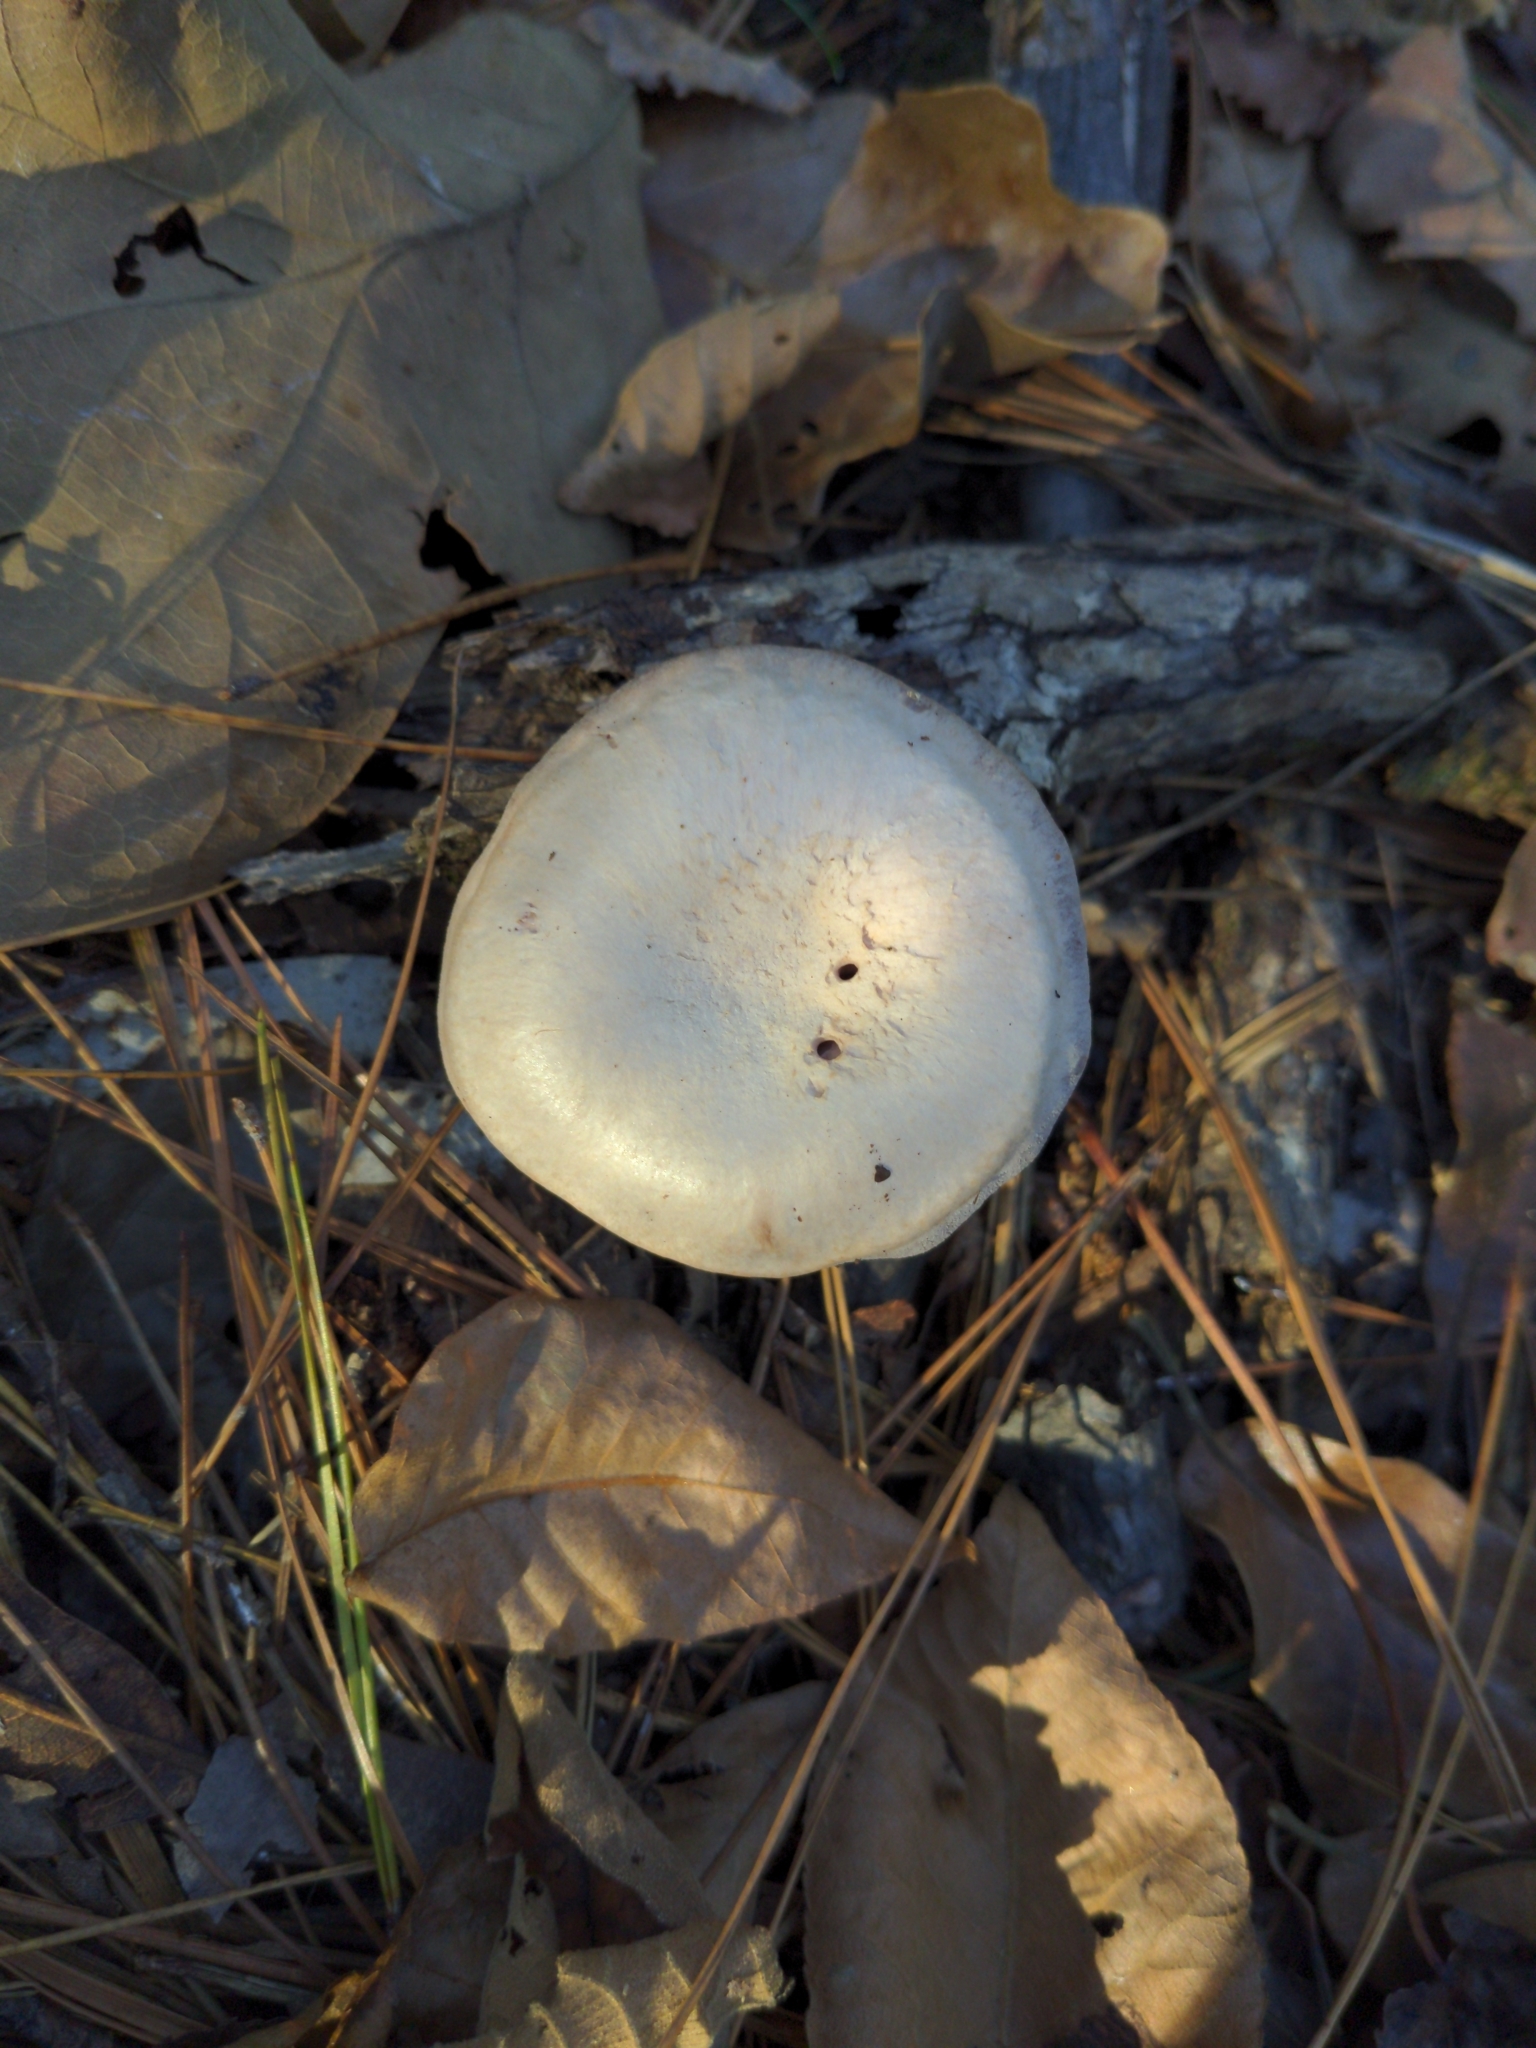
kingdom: Fungi
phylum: Basidiomycota
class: Agaricomycetes
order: Agaricales
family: Hydnangiaceae
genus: Laccaria
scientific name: Laccaria ochropurpurea
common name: Purple laccaria
